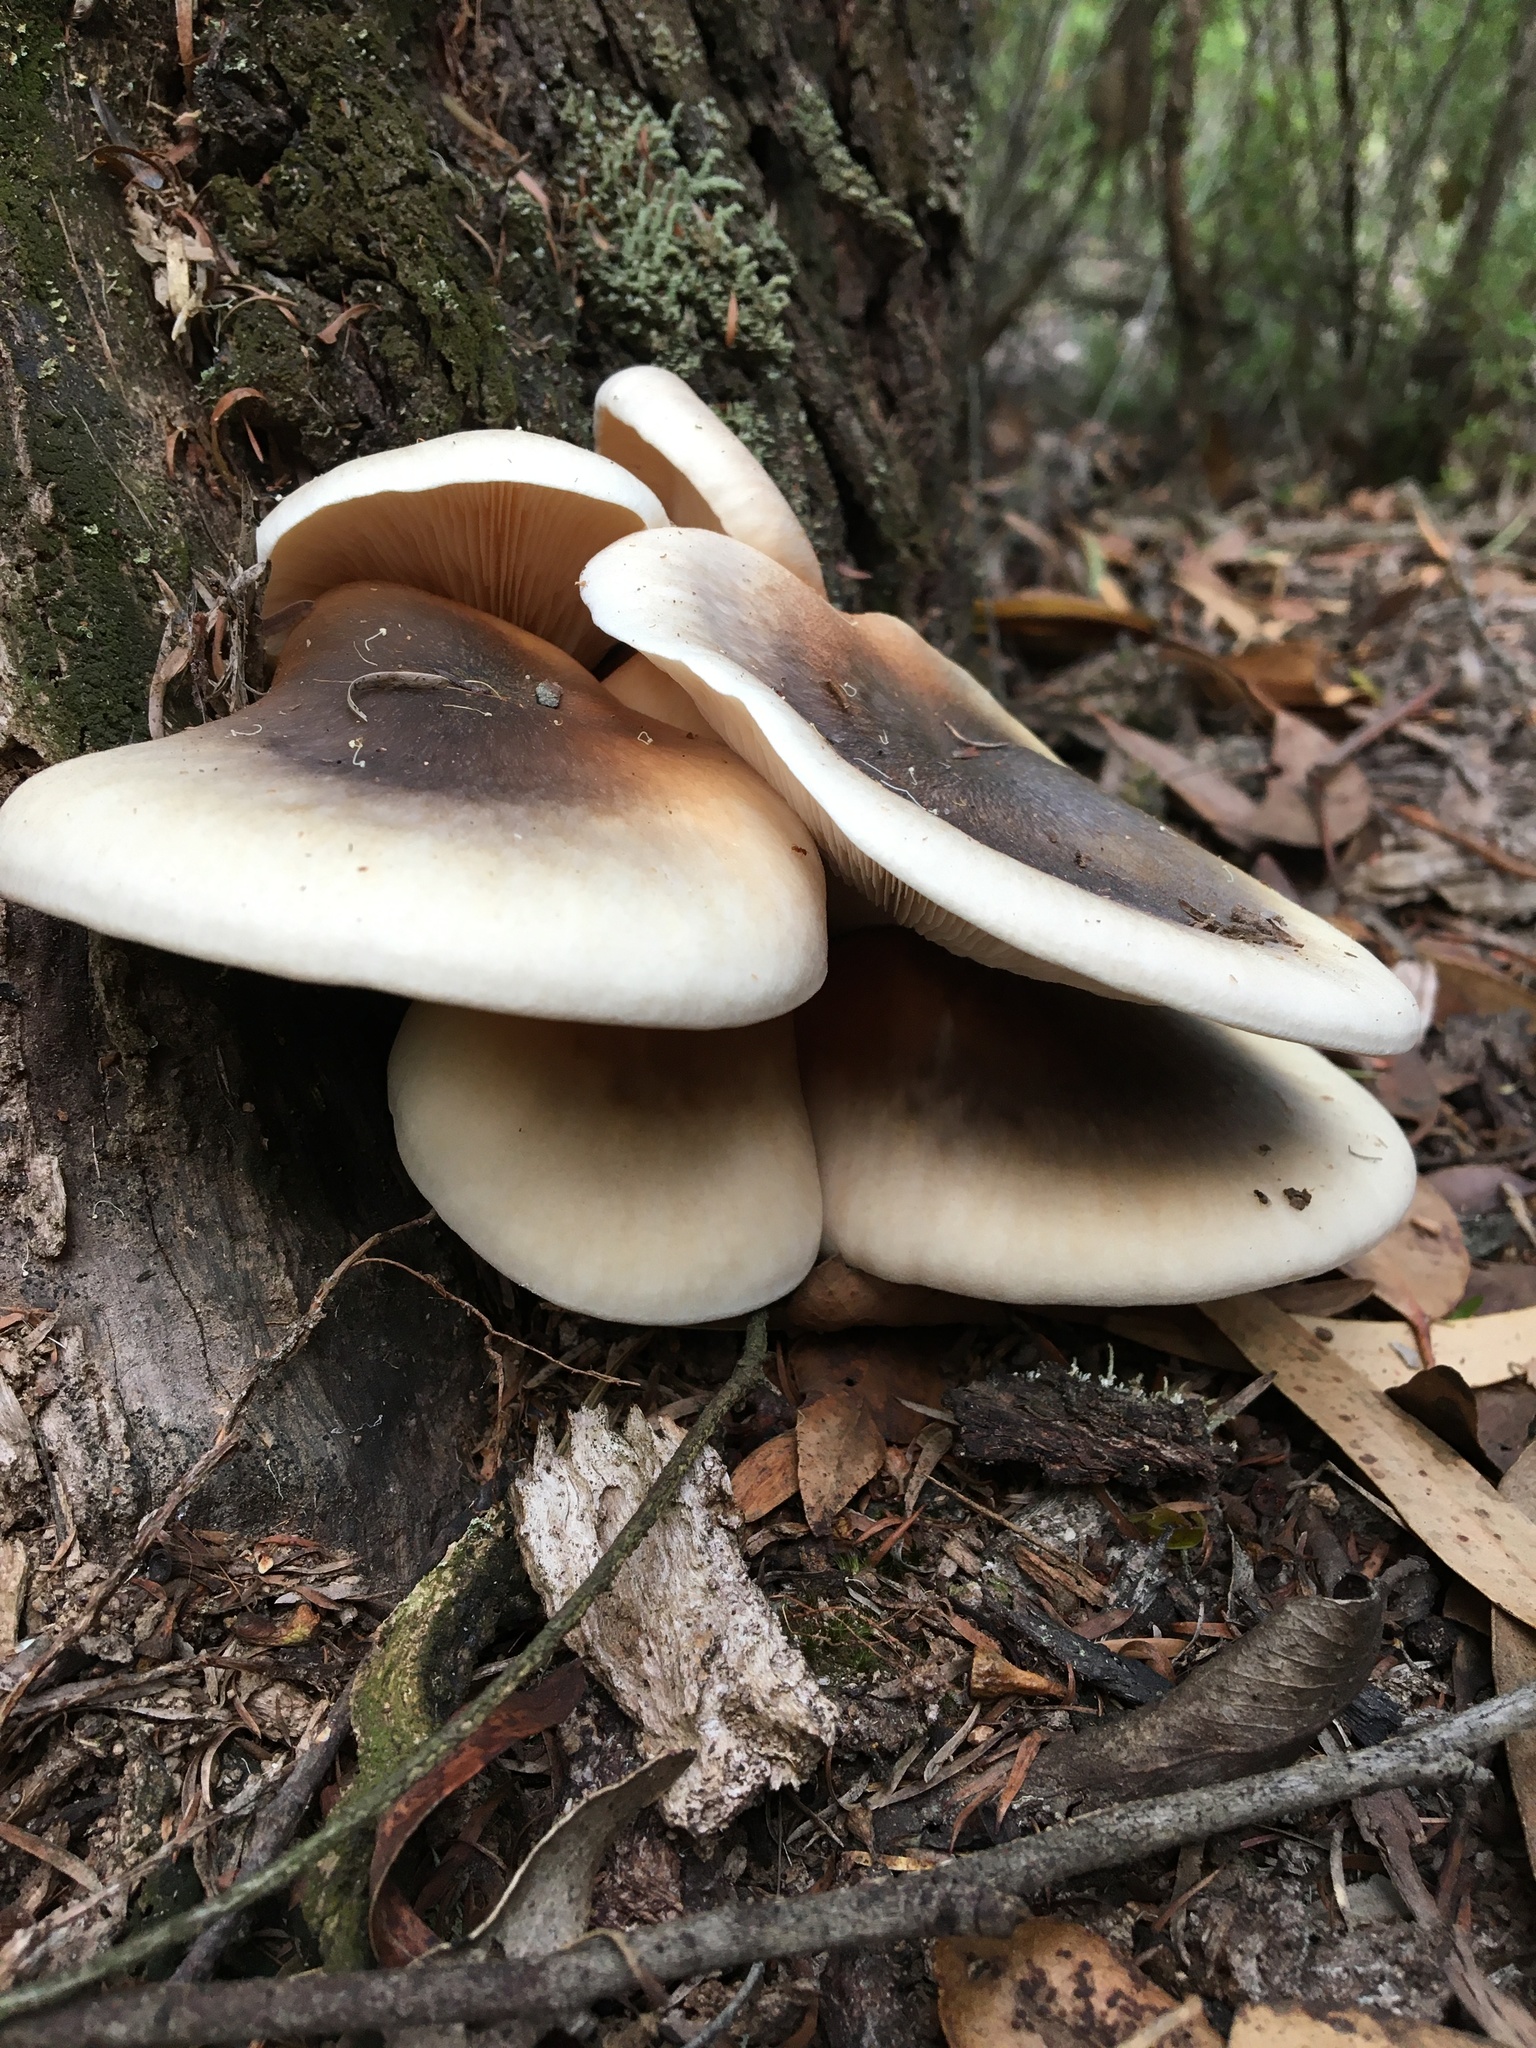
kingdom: Fungi
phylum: Basidiomycota
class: Agaricomycetes
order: Agaricales
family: Omphalotaceae
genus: Omphalotus
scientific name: Omphalotus nidiformis
